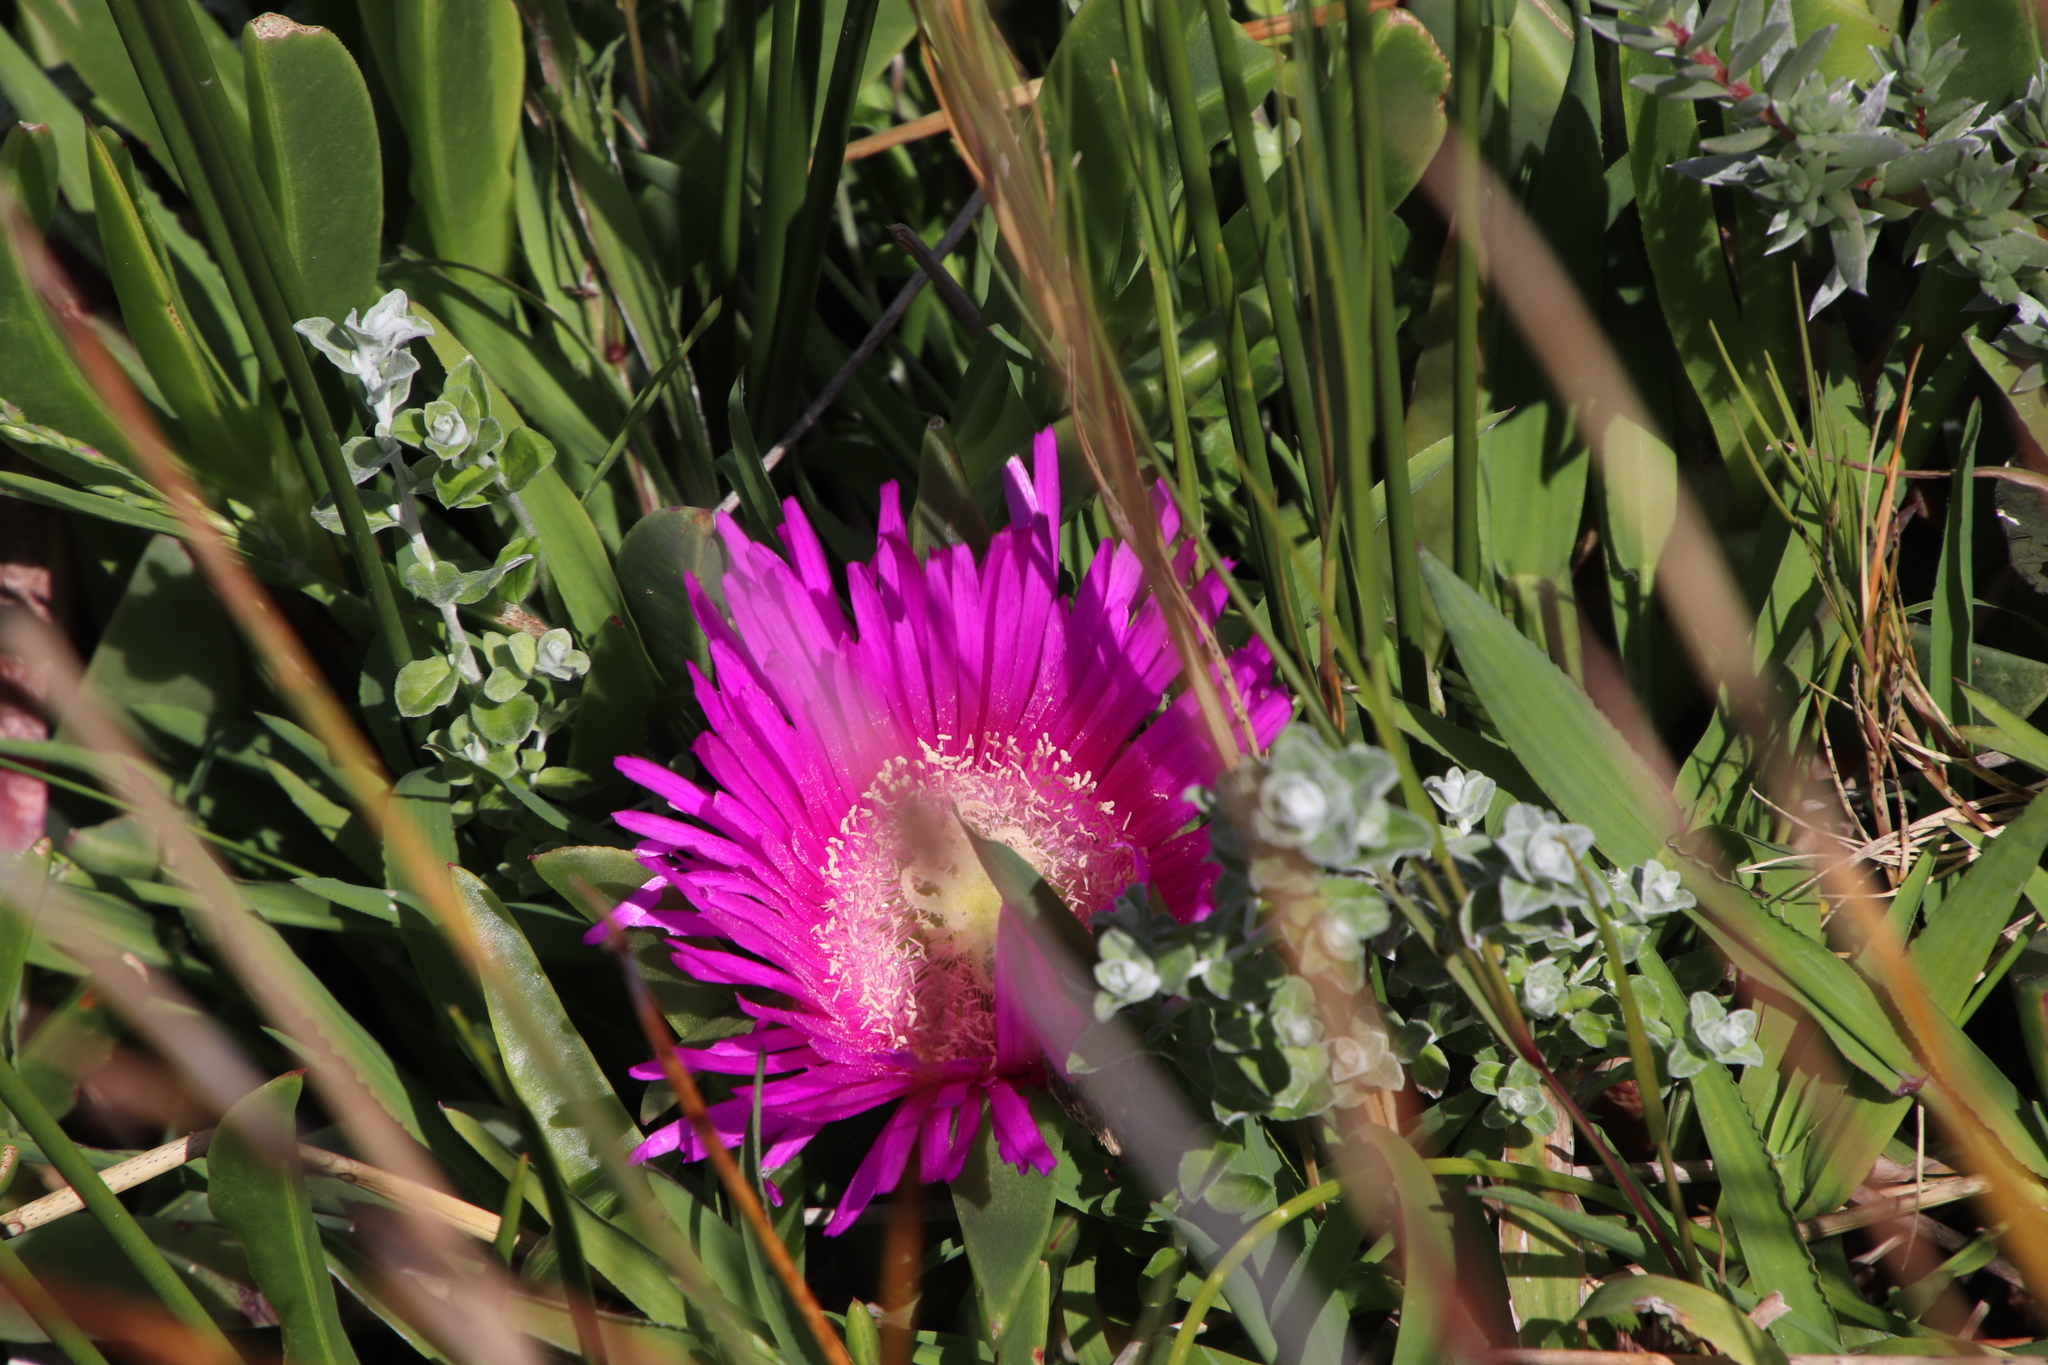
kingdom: Plantae
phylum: Tracheophyta
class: Magnoliopsida
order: Caryophyllales
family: Aizoaceae
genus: Carpobrotus
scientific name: Carpobrotus acinaciformis
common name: Sally-my-handsome
